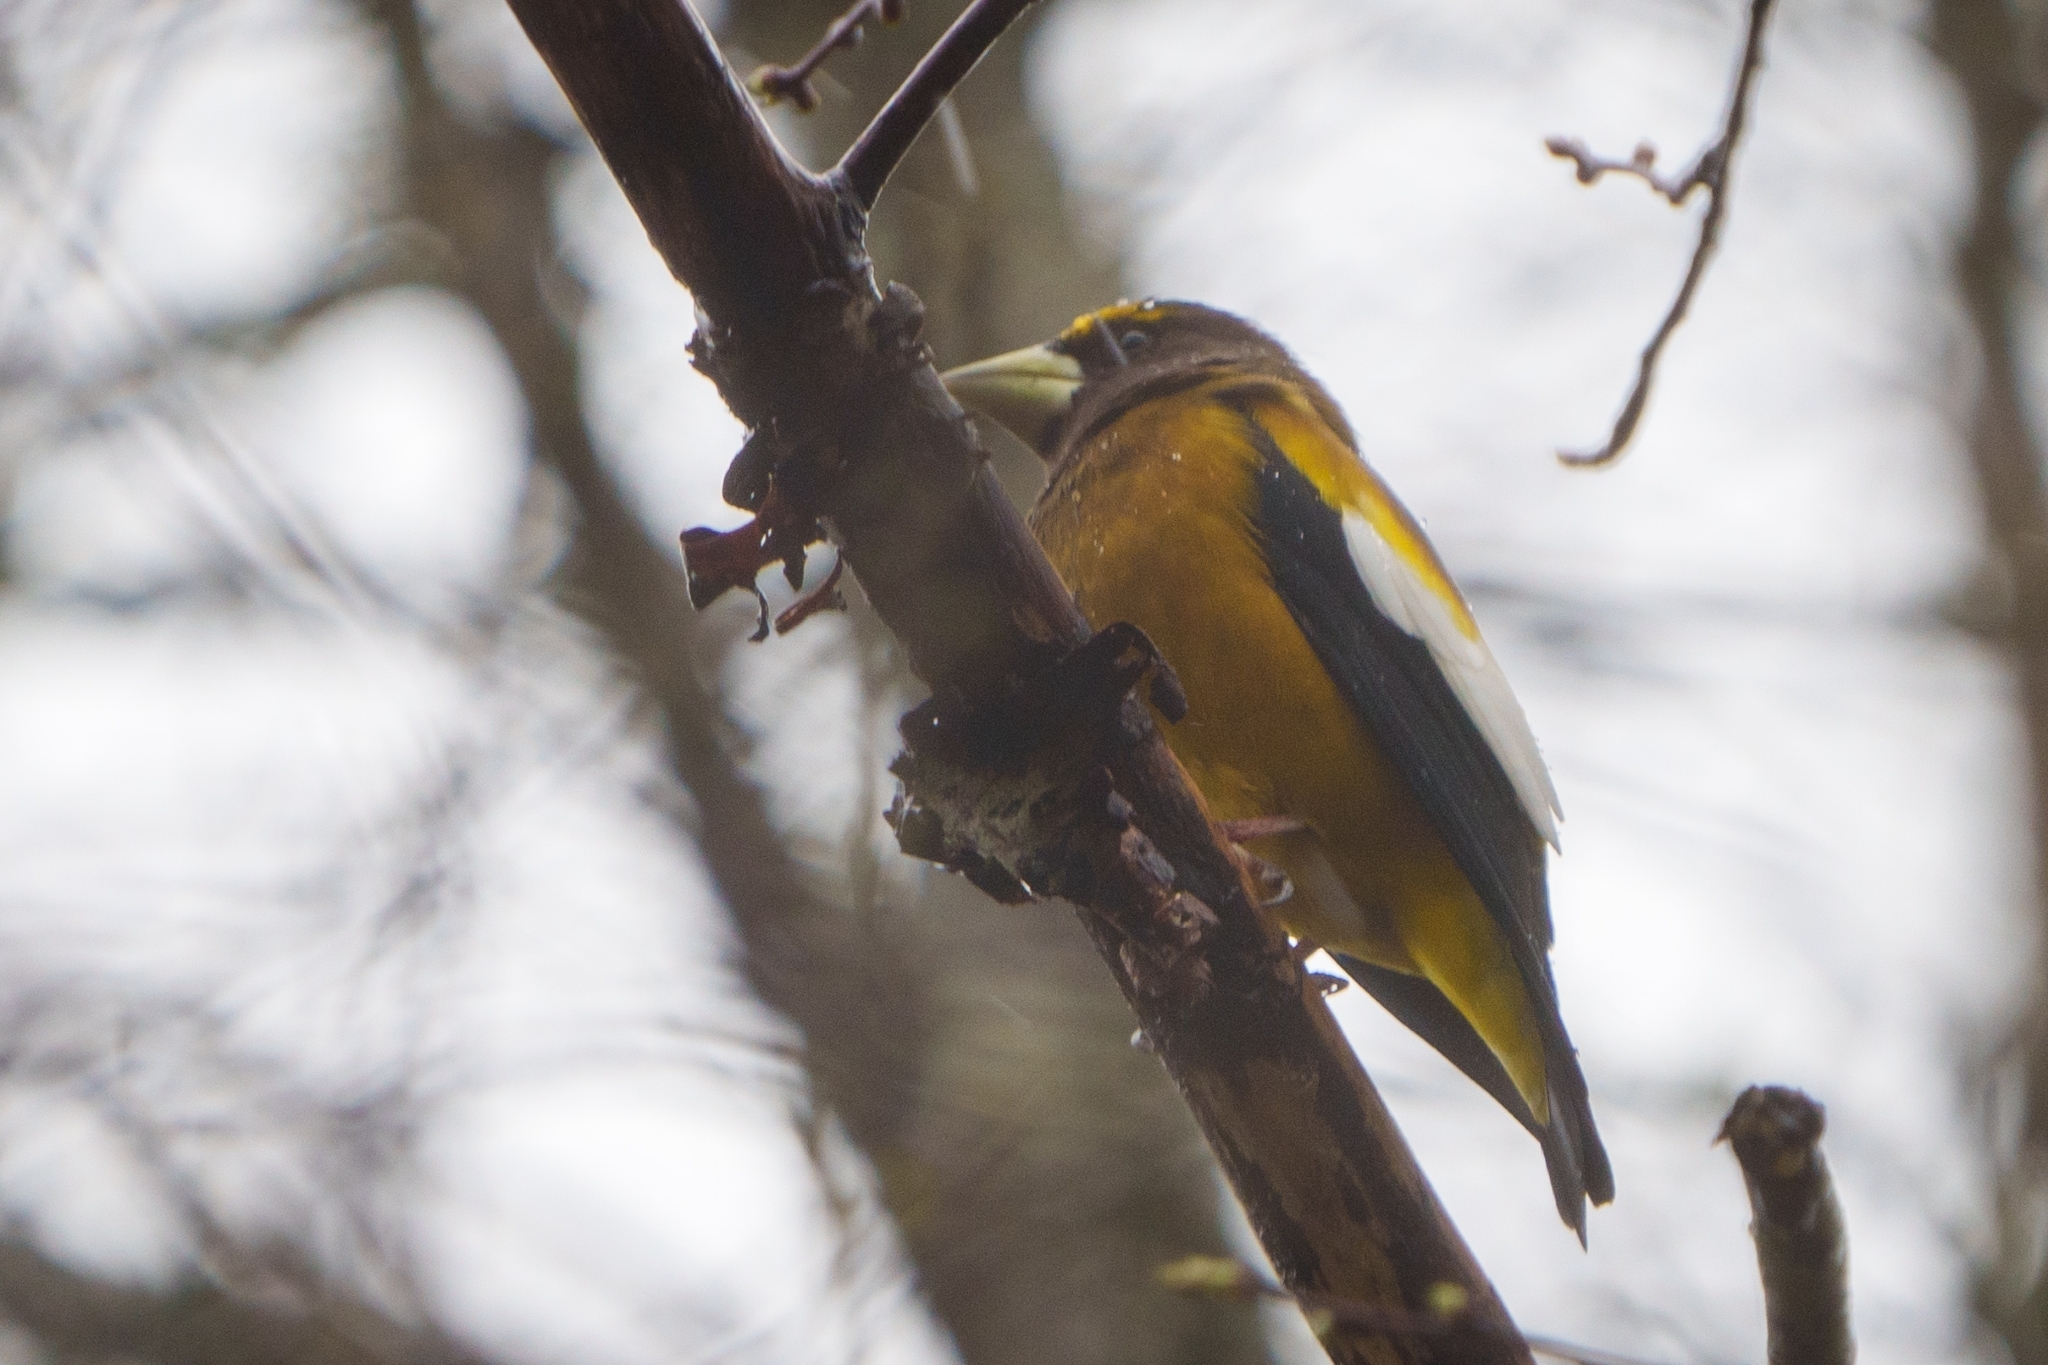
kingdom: Animalia
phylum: Chordata
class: Aves
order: Passeriformes
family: Fringillidae
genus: Hesperiphona
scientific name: Hesperiphona vespertina
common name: Evening grosbeak
